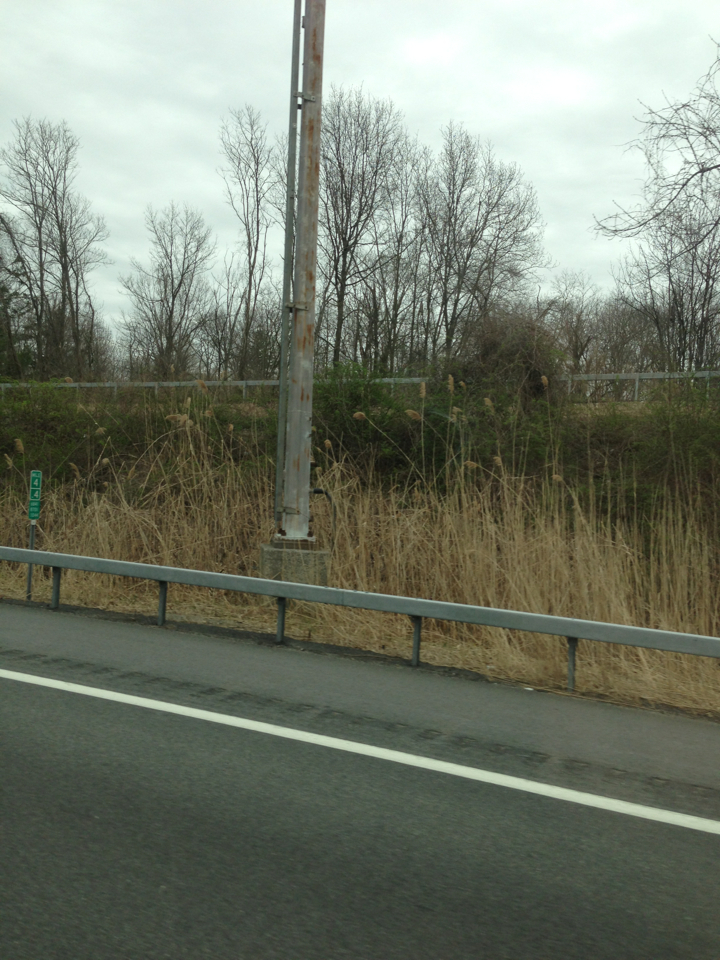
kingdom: Plantae
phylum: Tracheophyta
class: Liliopsida
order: Poales
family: Poaceae
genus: Phragmites
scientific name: Phragmites australis
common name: Common reed
